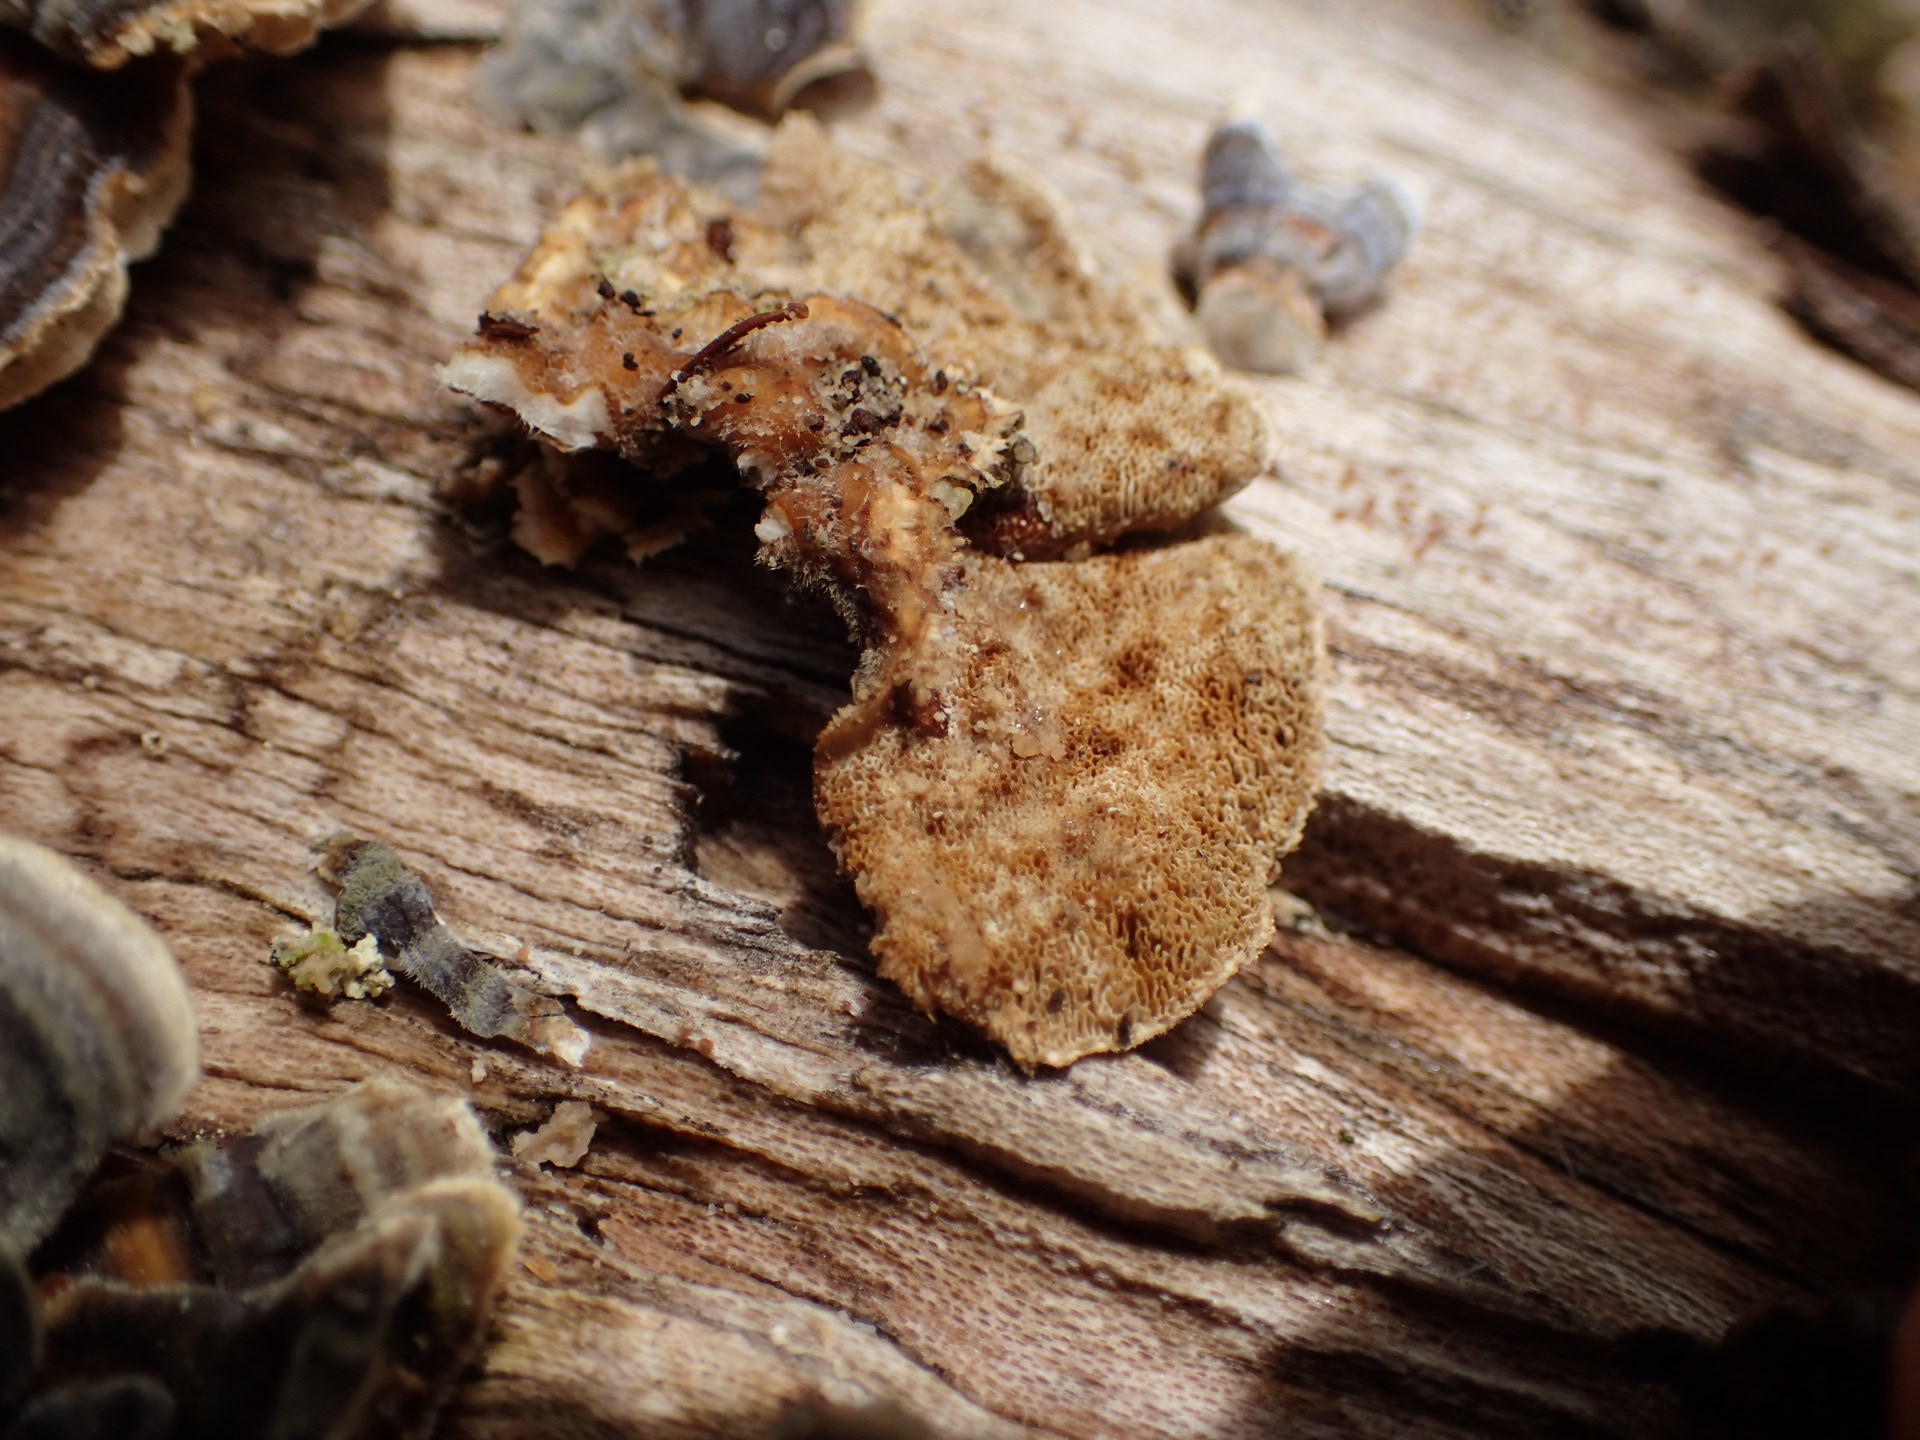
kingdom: Fungi
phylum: Basidiomycota
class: Agaricomycetes
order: Polyporales
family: Polyporaceae
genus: Trametes
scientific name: Trametes versicolor
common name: Turkeytail
